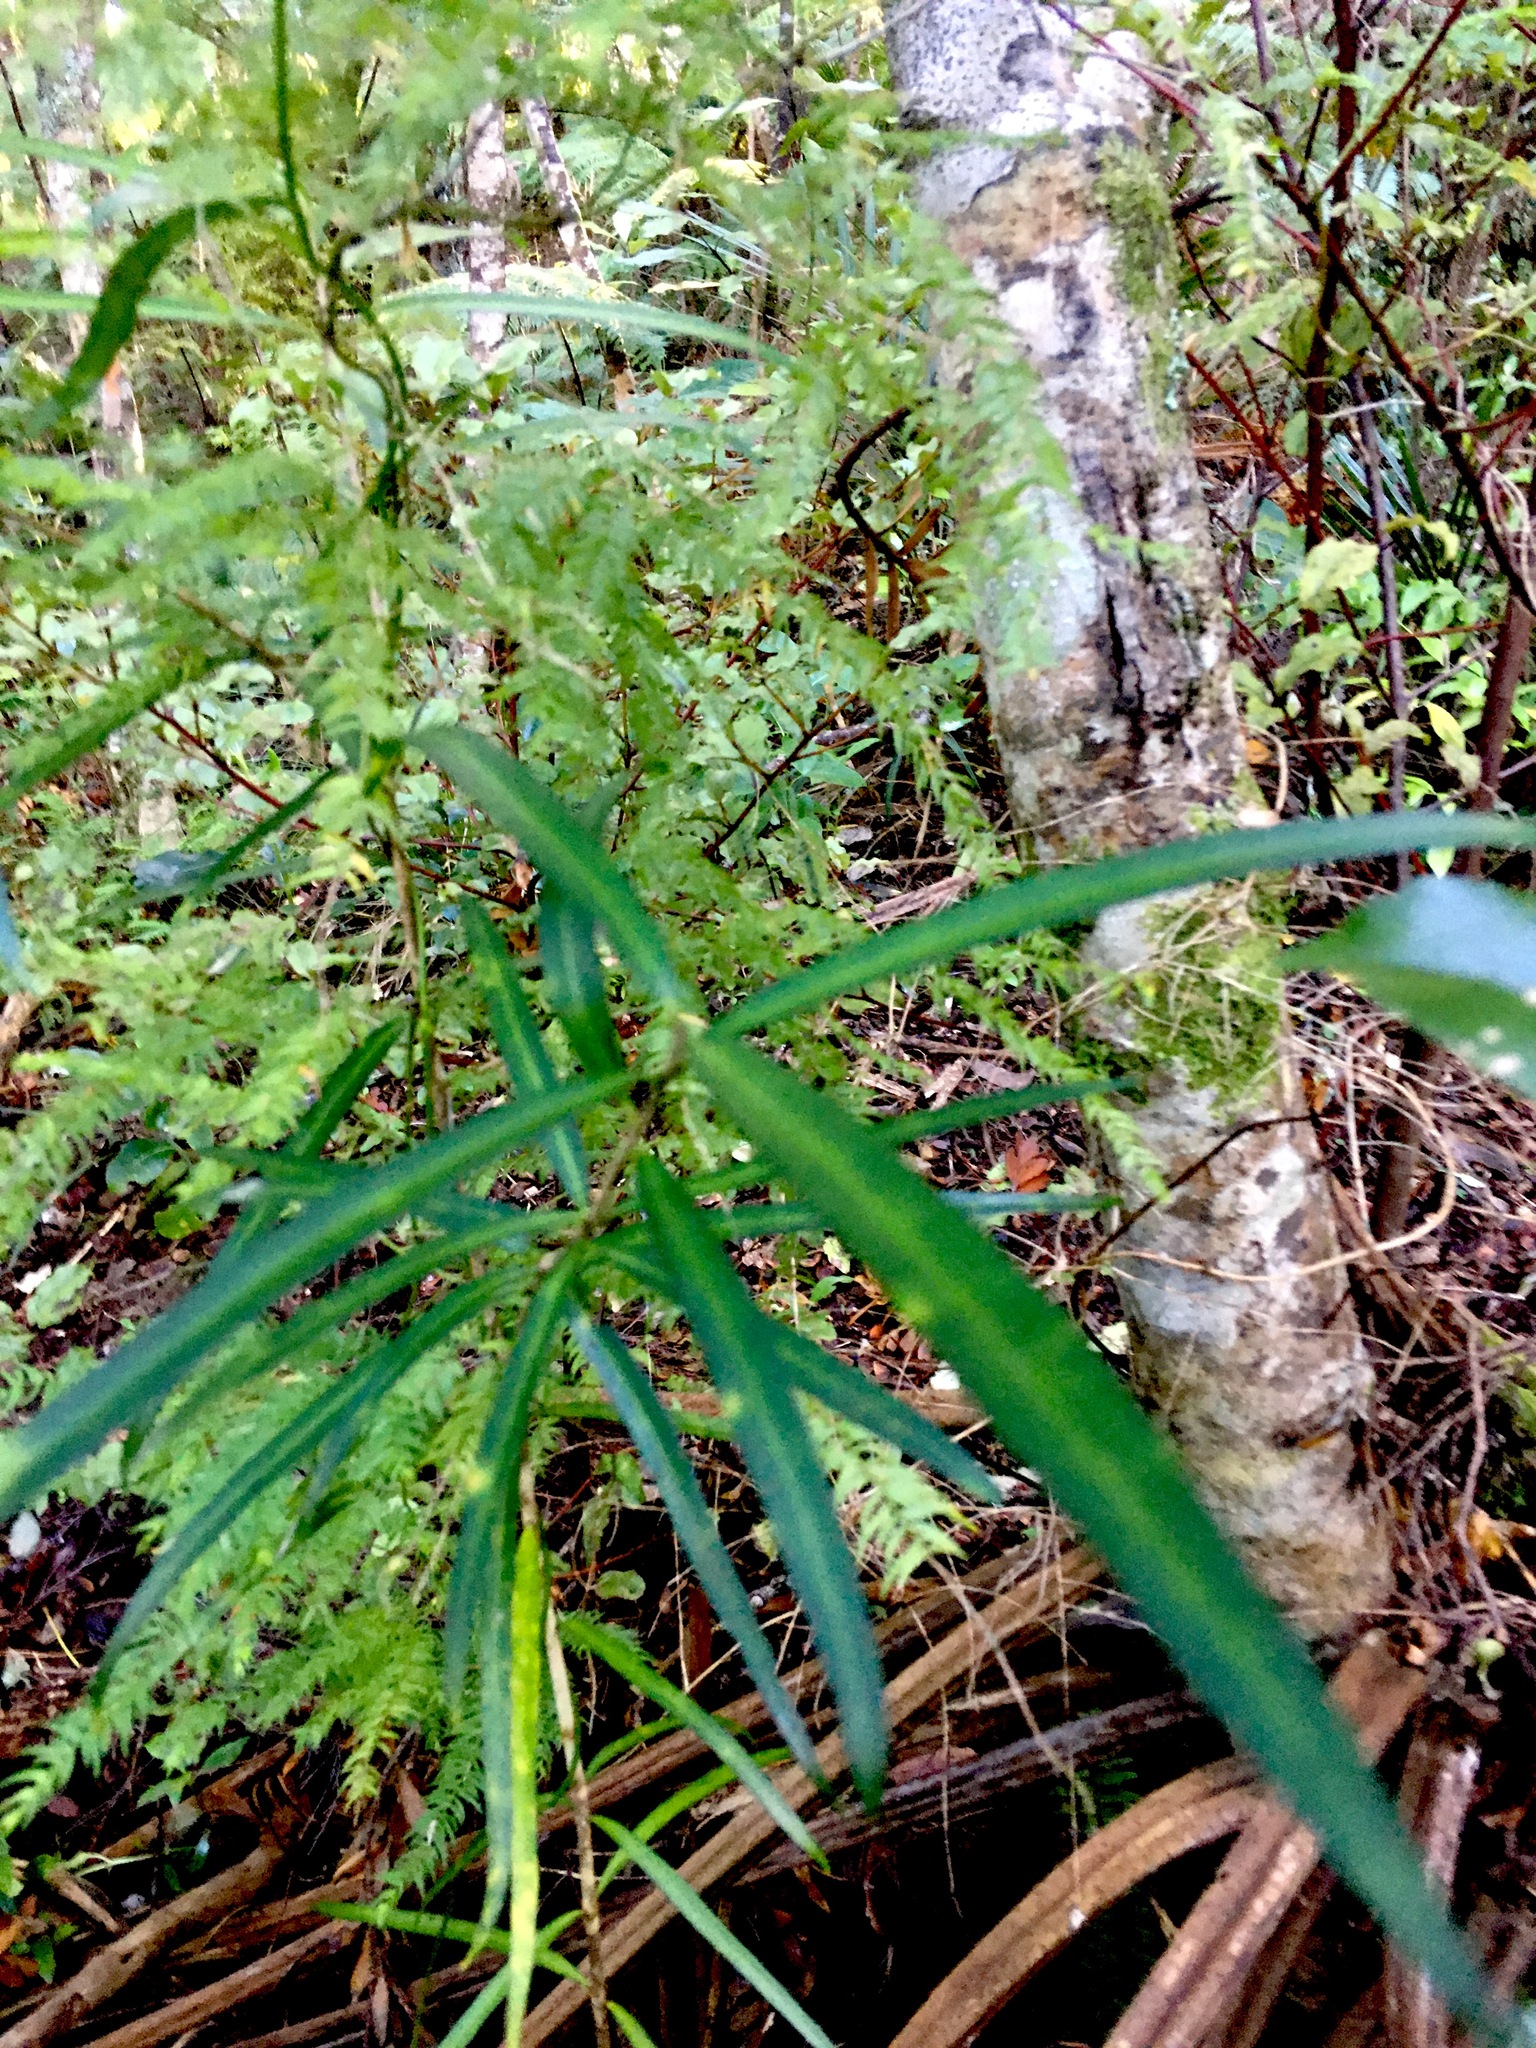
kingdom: Plantae
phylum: Tracheophyta
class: Magnoliopsida
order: Lamiales
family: Oleaceae
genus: Nestegis
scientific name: Nestegis lanceolata
